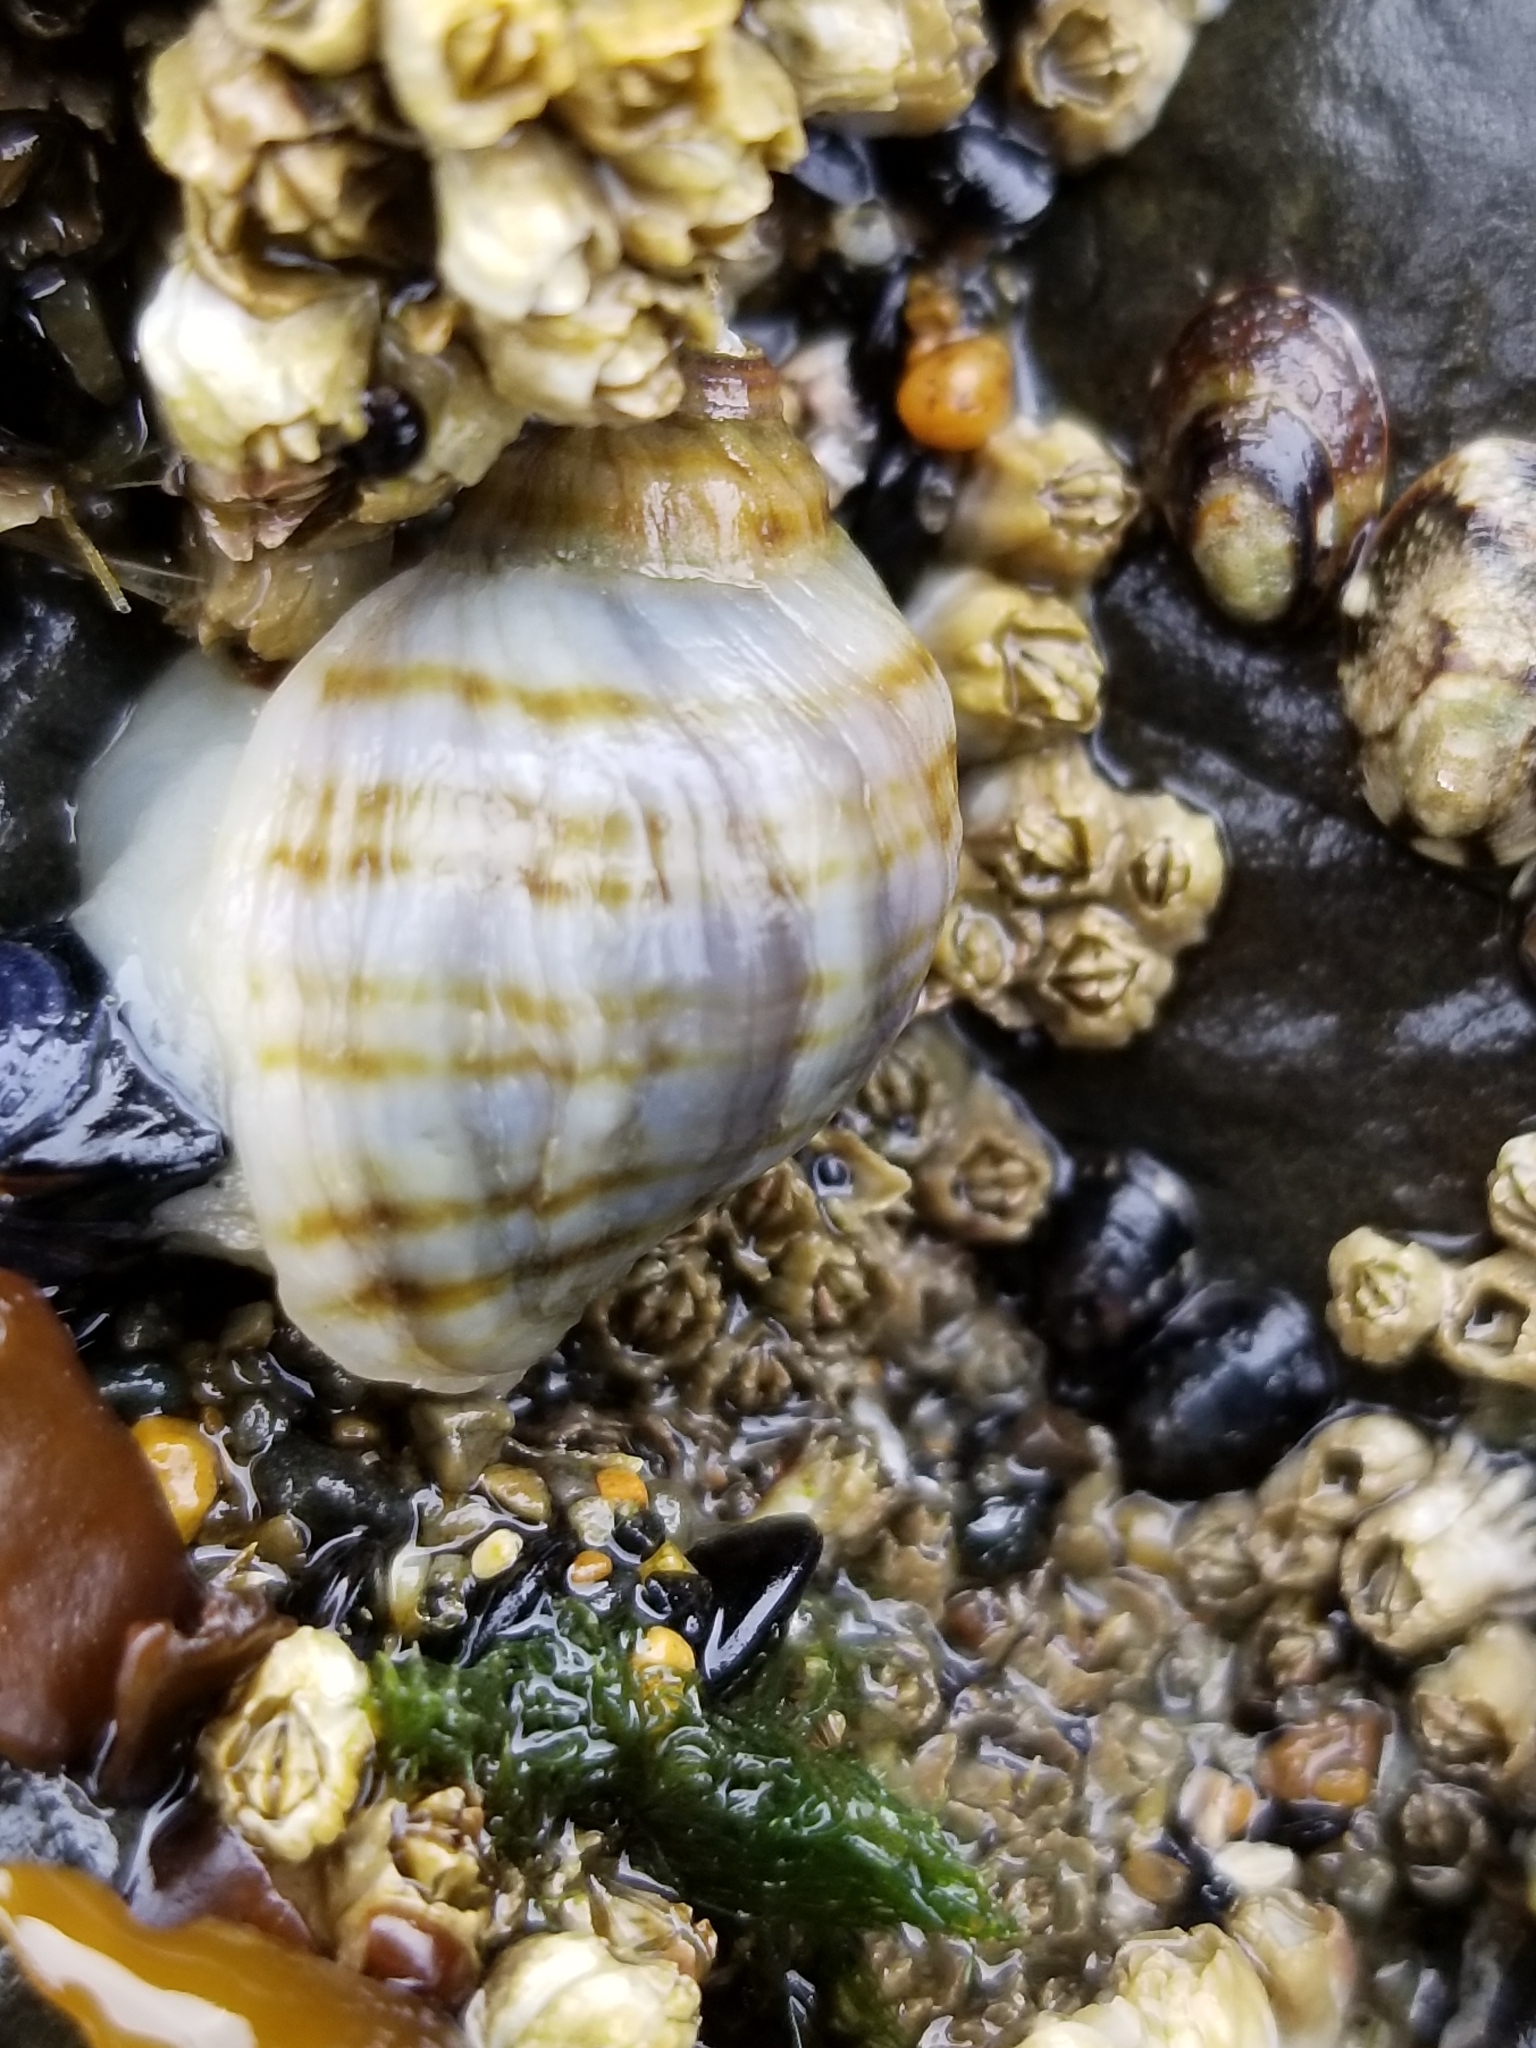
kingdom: Animalia
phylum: Mollusca
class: Gastropoda
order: Neogastropoda
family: Muricidae
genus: Nucella
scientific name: Nucella ostrina
